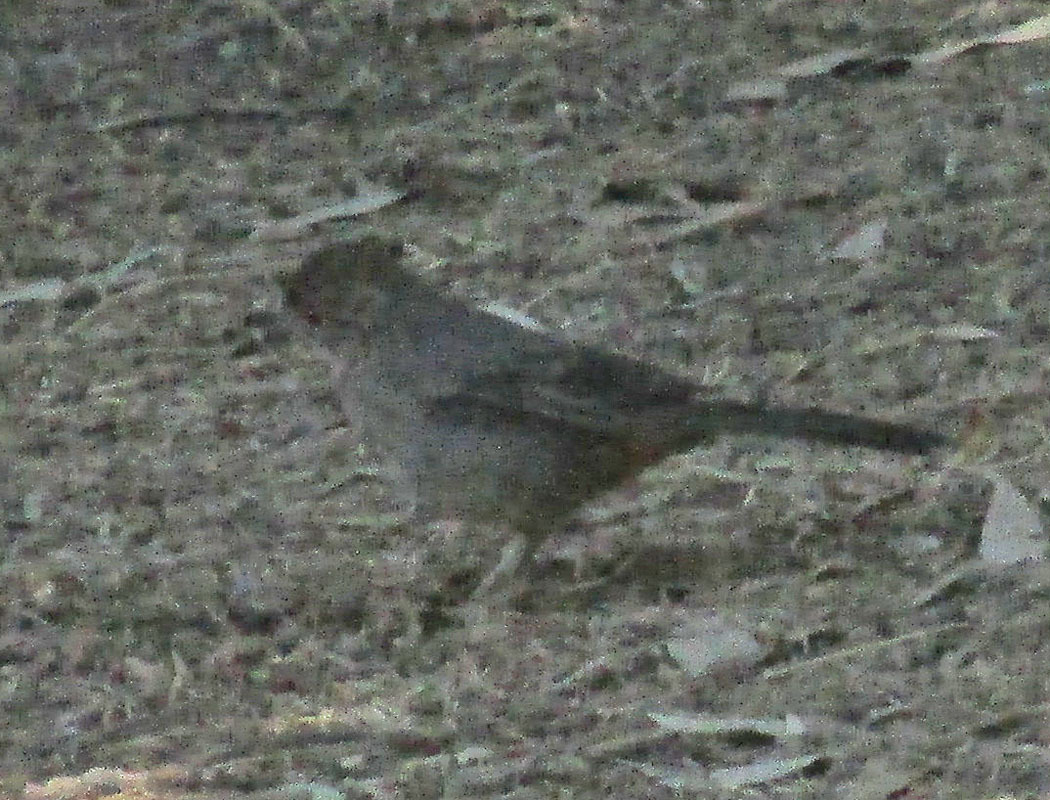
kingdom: Animalia
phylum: Chordata
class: Aves
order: Passeriformes
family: Passerellidae
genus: Melozone
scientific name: Melozone fusca
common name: Canyon towhee
